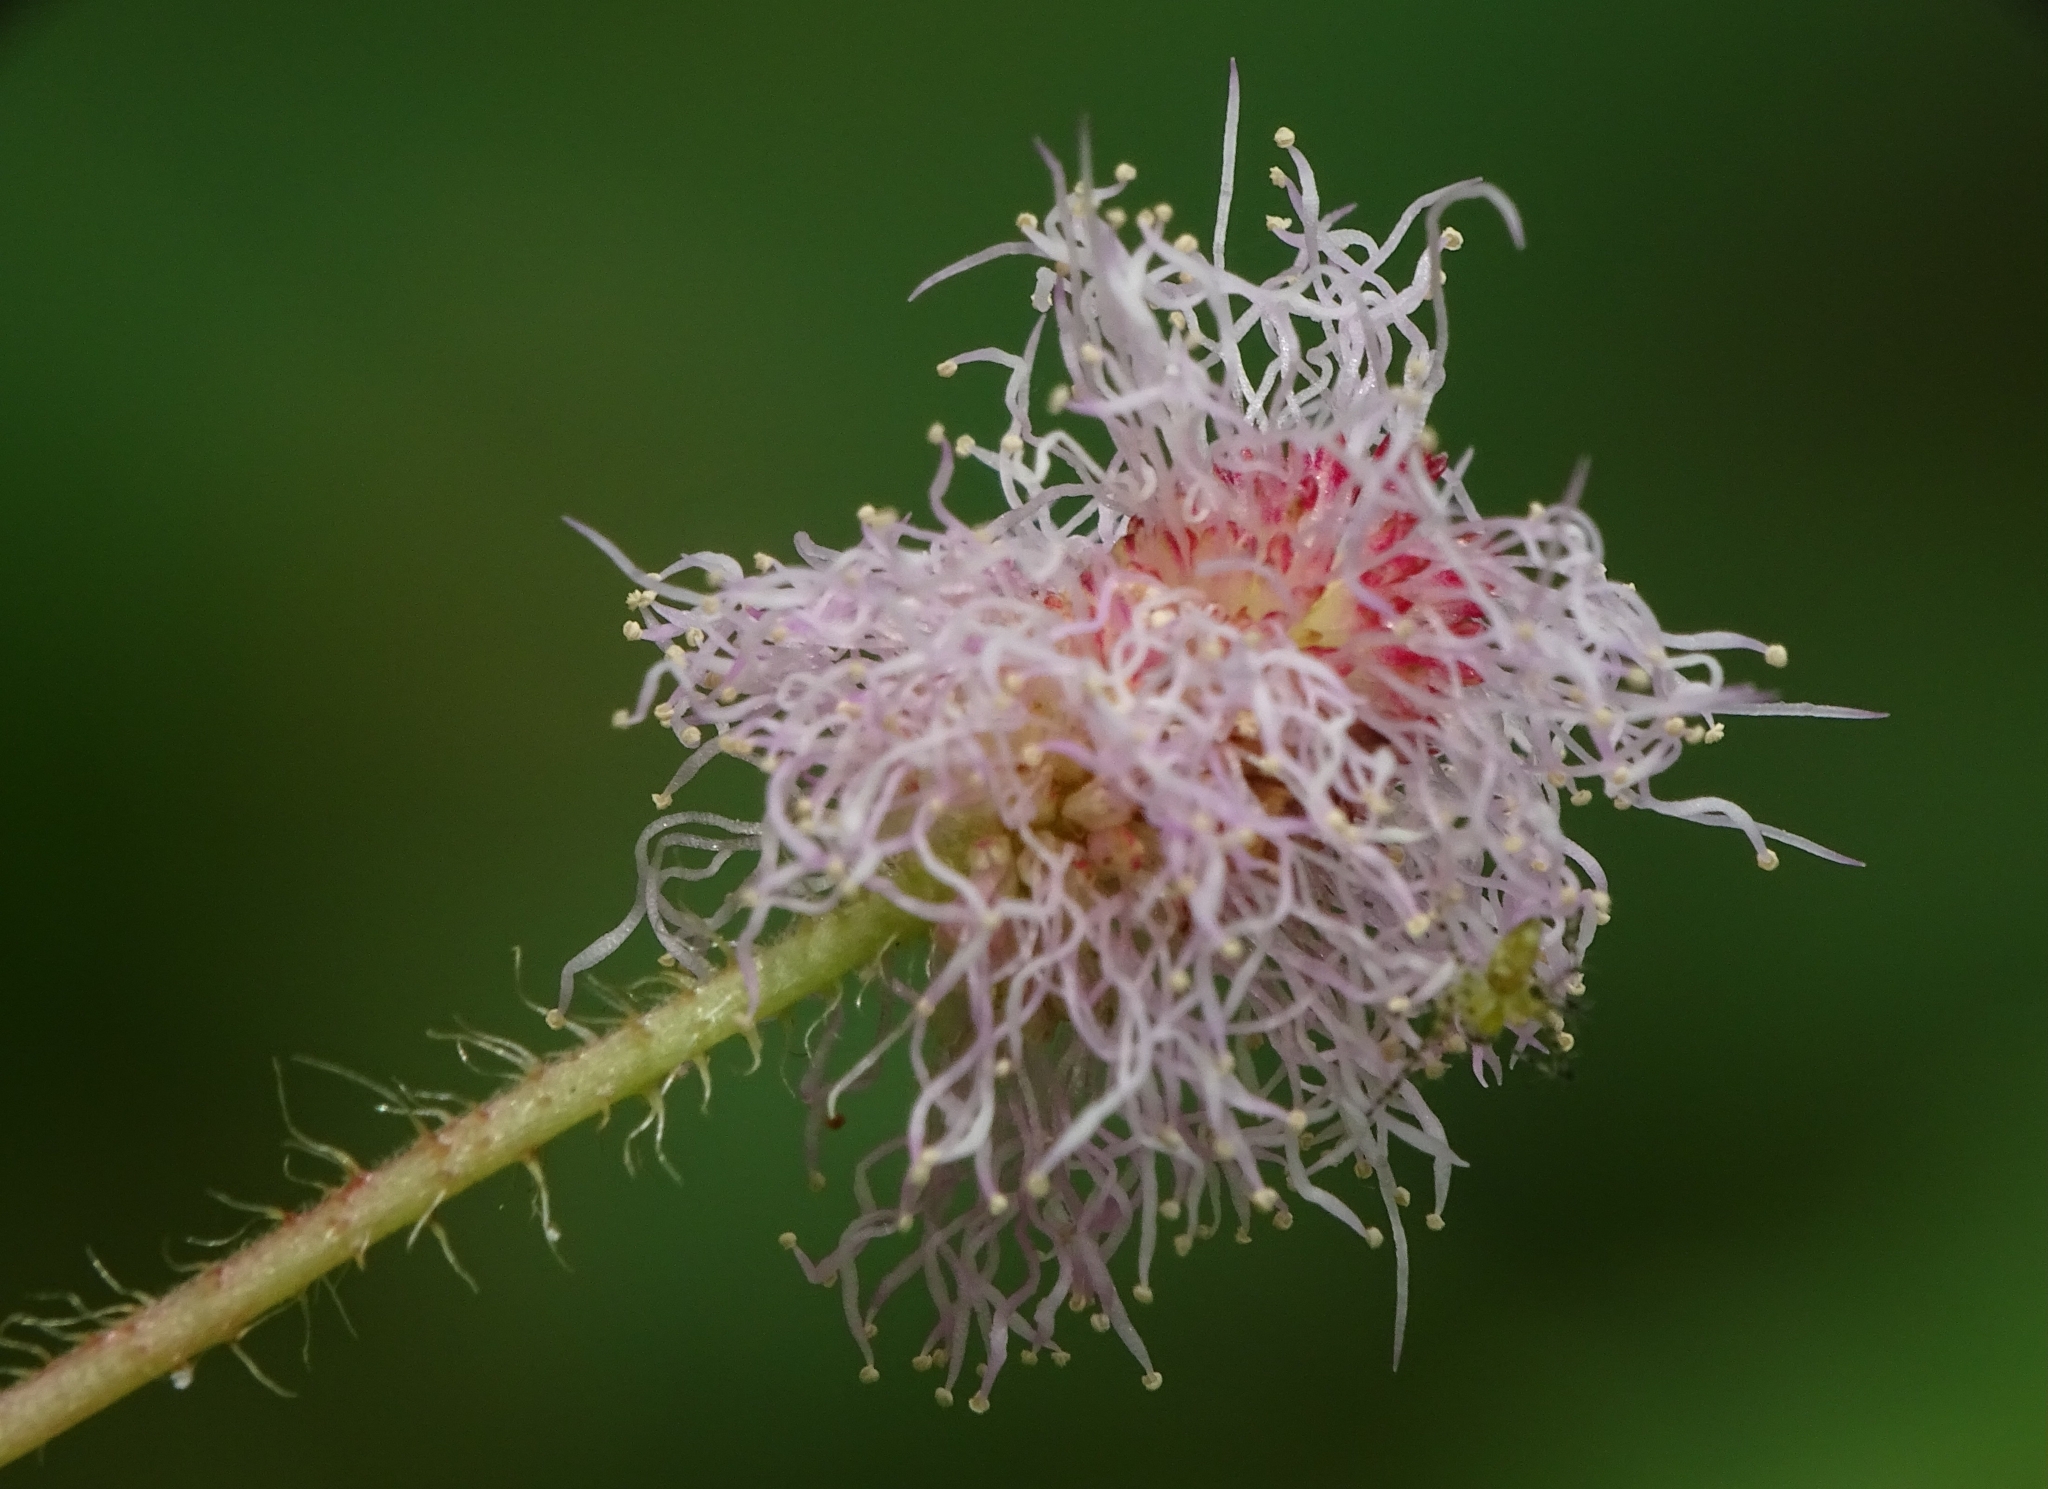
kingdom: Plantae
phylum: Tracheophyta
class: Magnoliopsida
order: Fabales
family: Fabaceae
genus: Mimosa
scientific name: Mimosa pudica
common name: Sensitive plant
